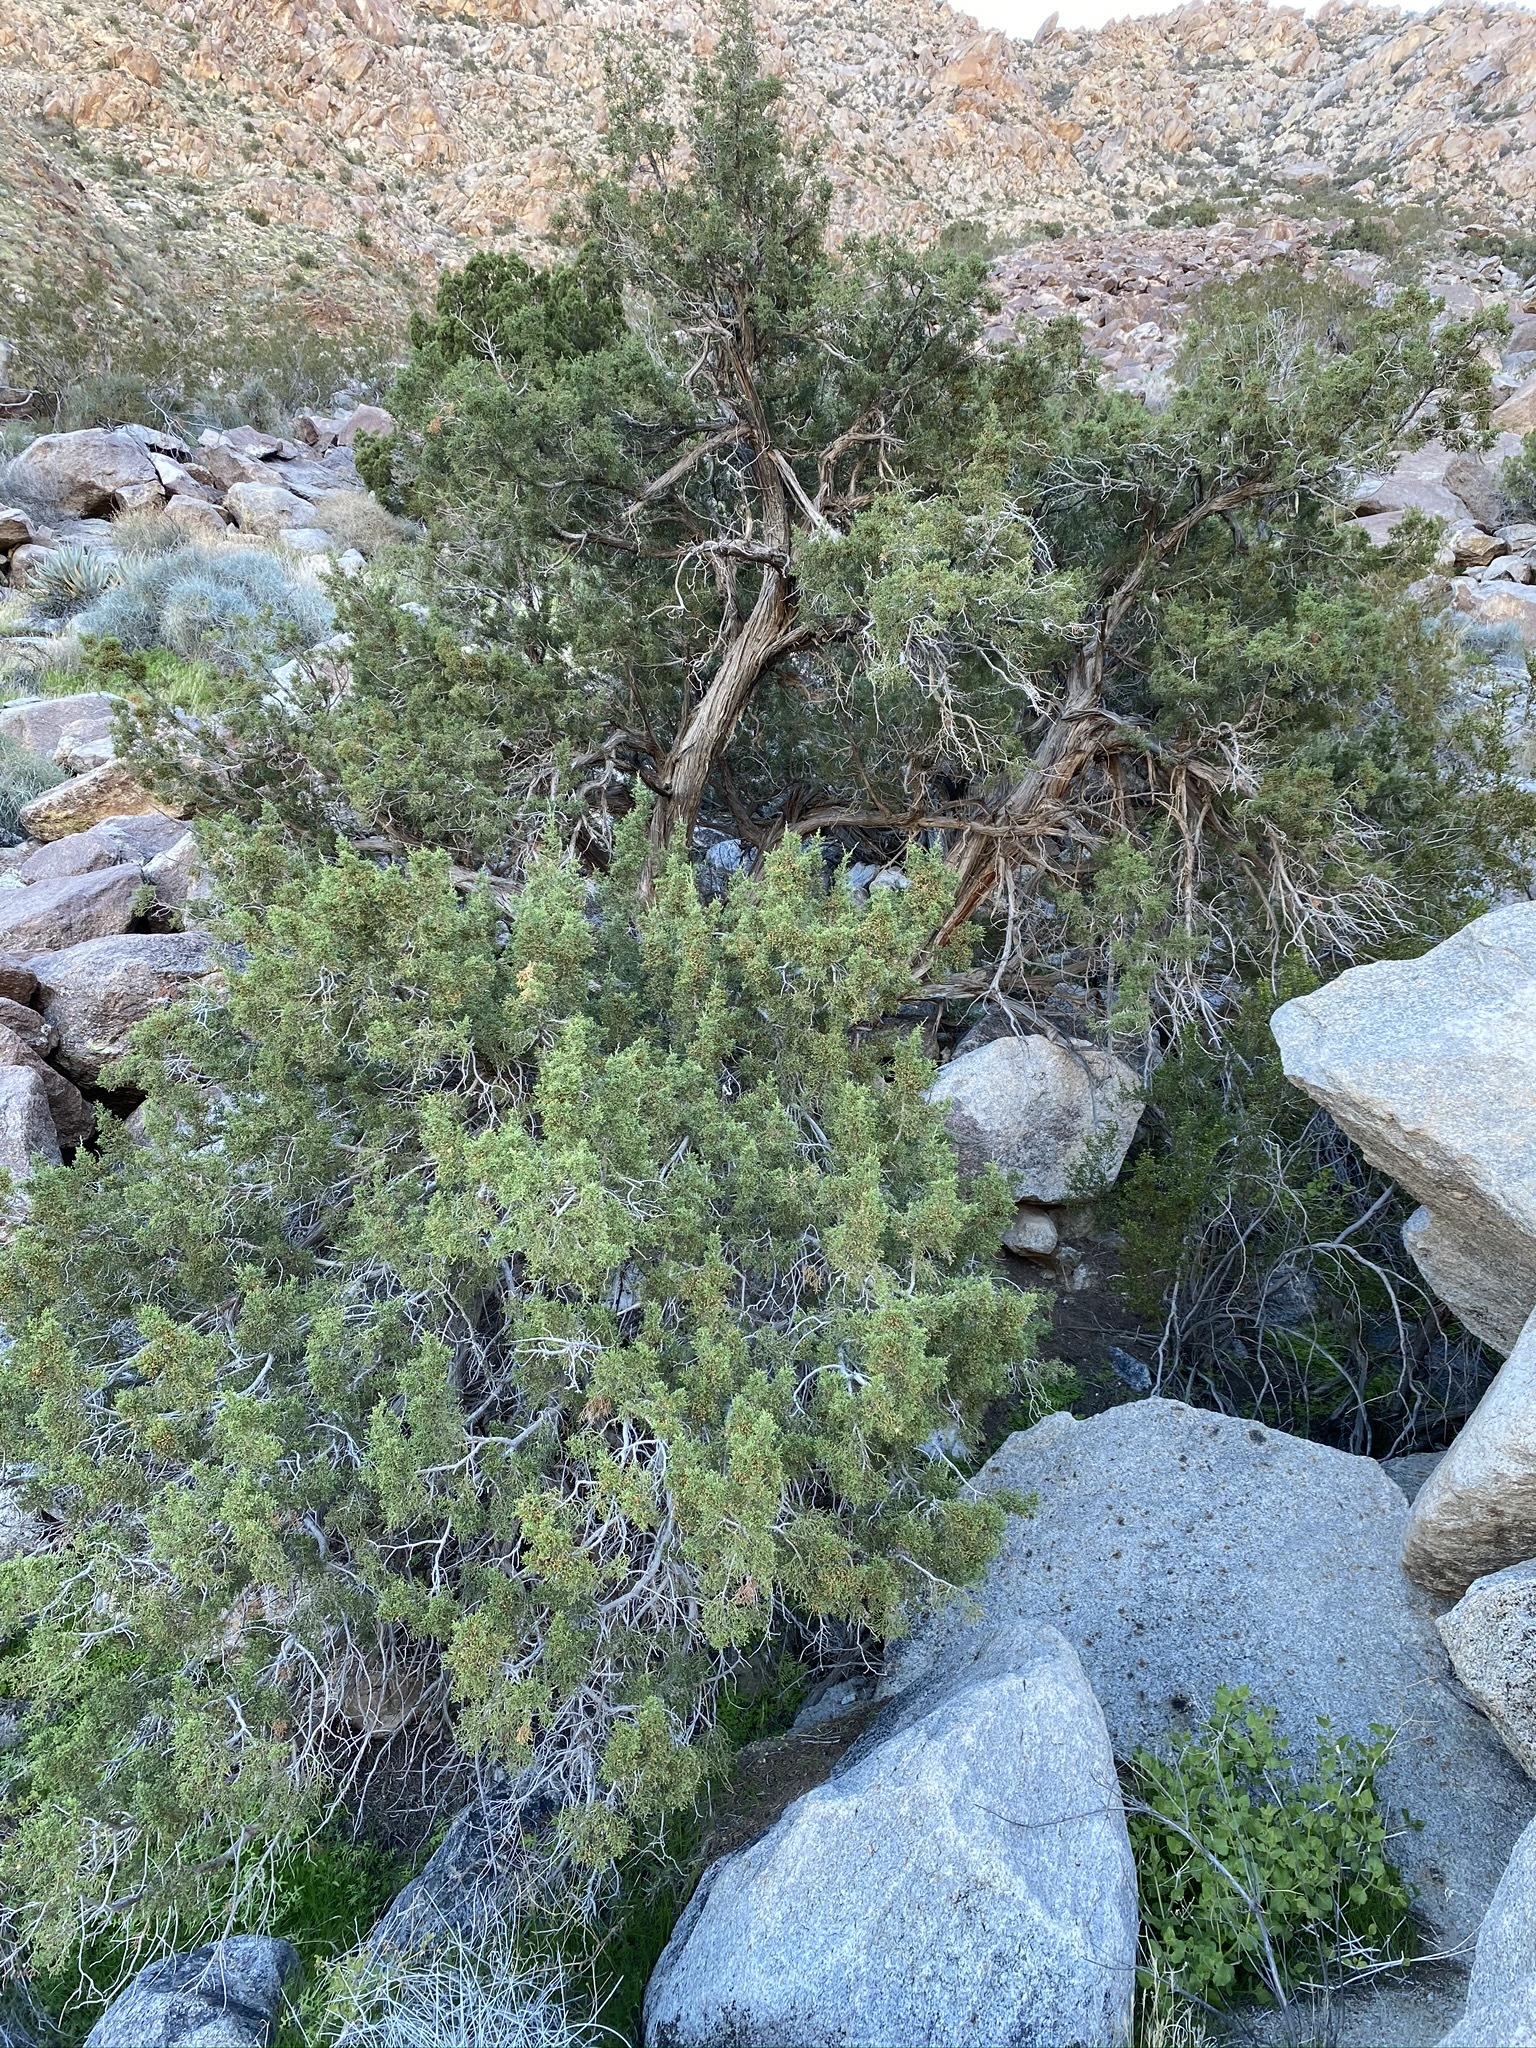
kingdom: Plantae
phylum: Tracheophyta
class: Pinopsida
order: Pinales
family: Cupressaceae
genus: Juniperus
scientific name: Juniperus californica
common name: California juniper
